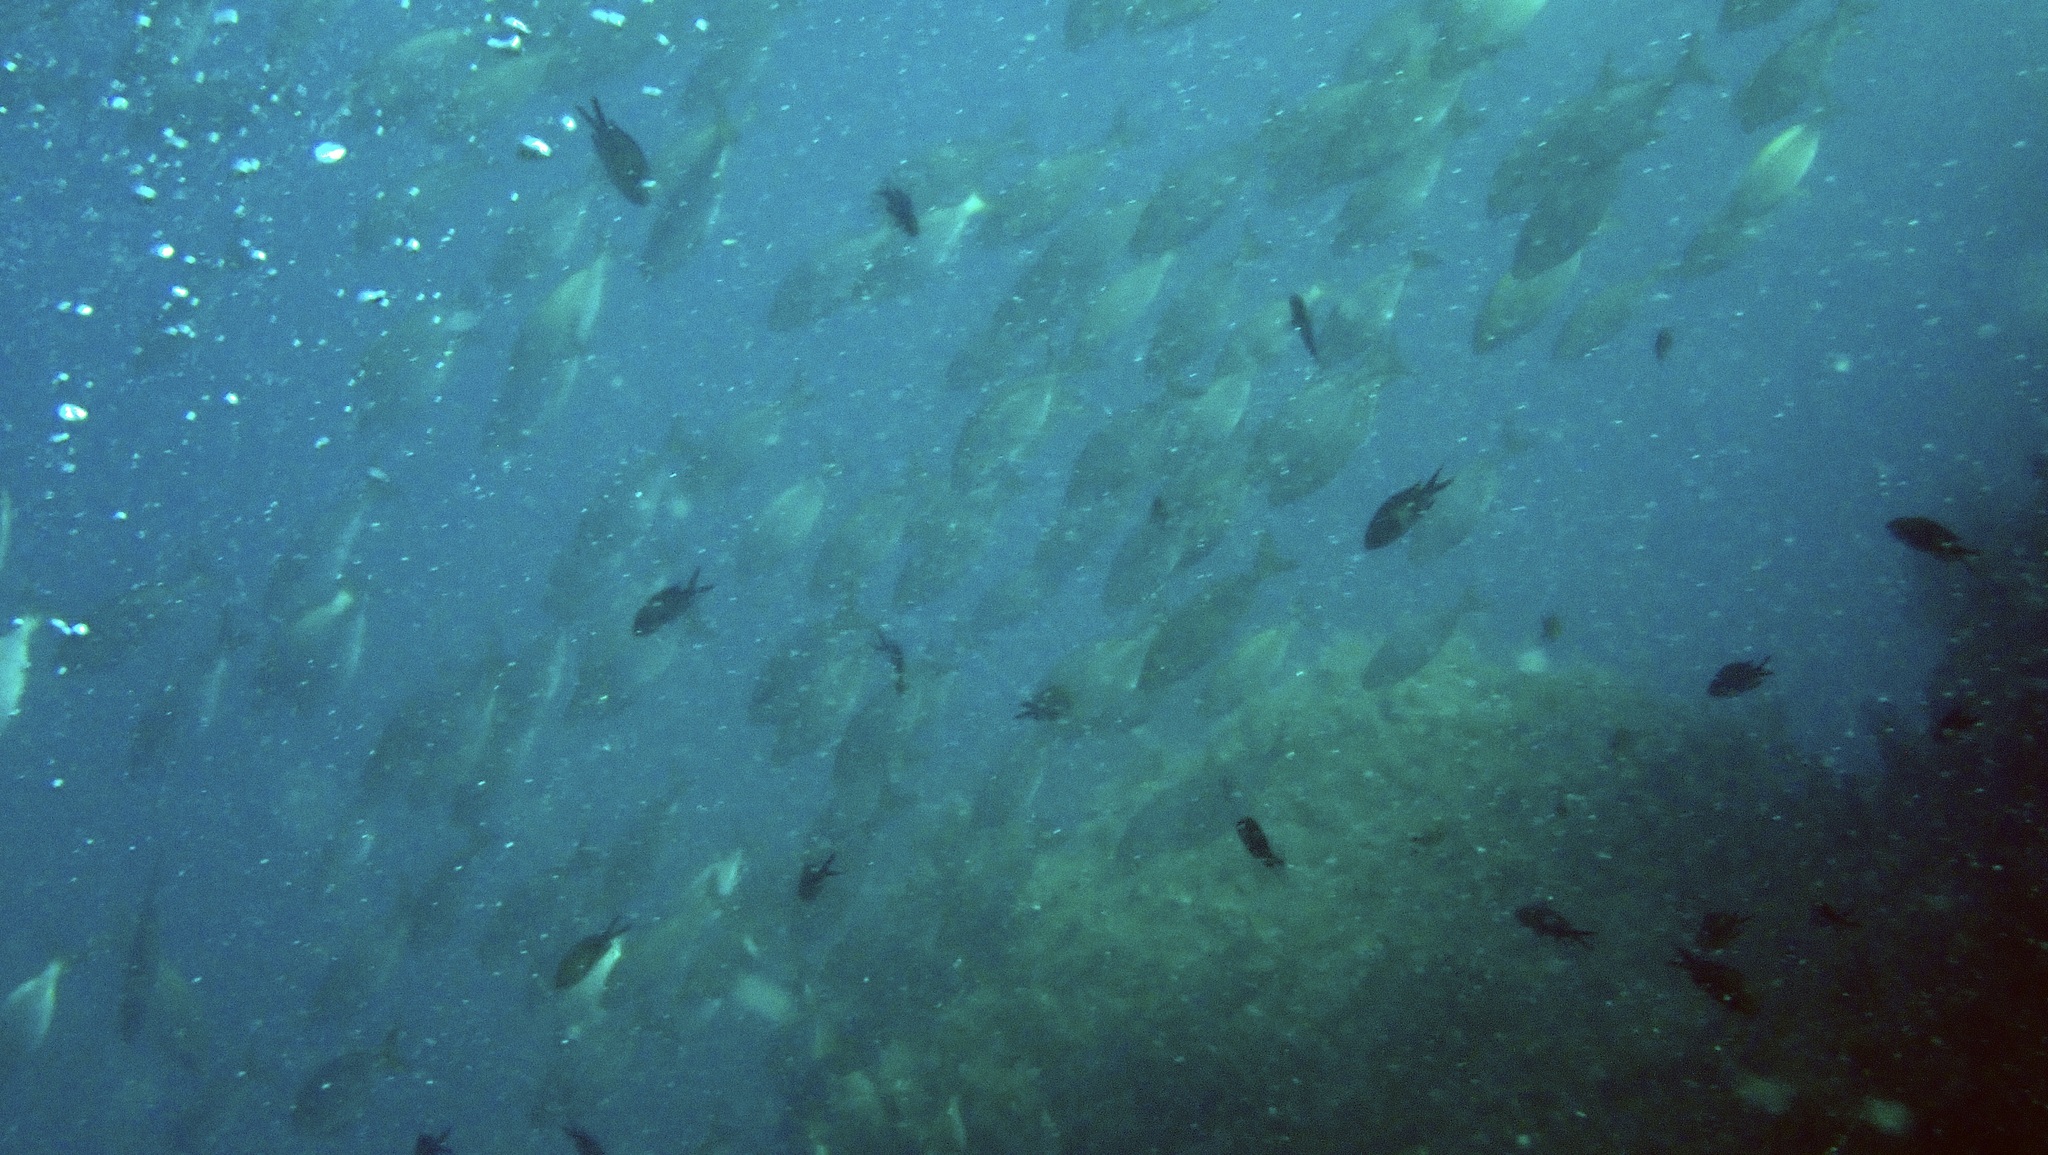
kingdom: Animalia
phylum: Chordata
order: Perciformes
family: Pomacentridae
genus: Chromis
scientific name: Chromis chromis
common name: Damselfish
